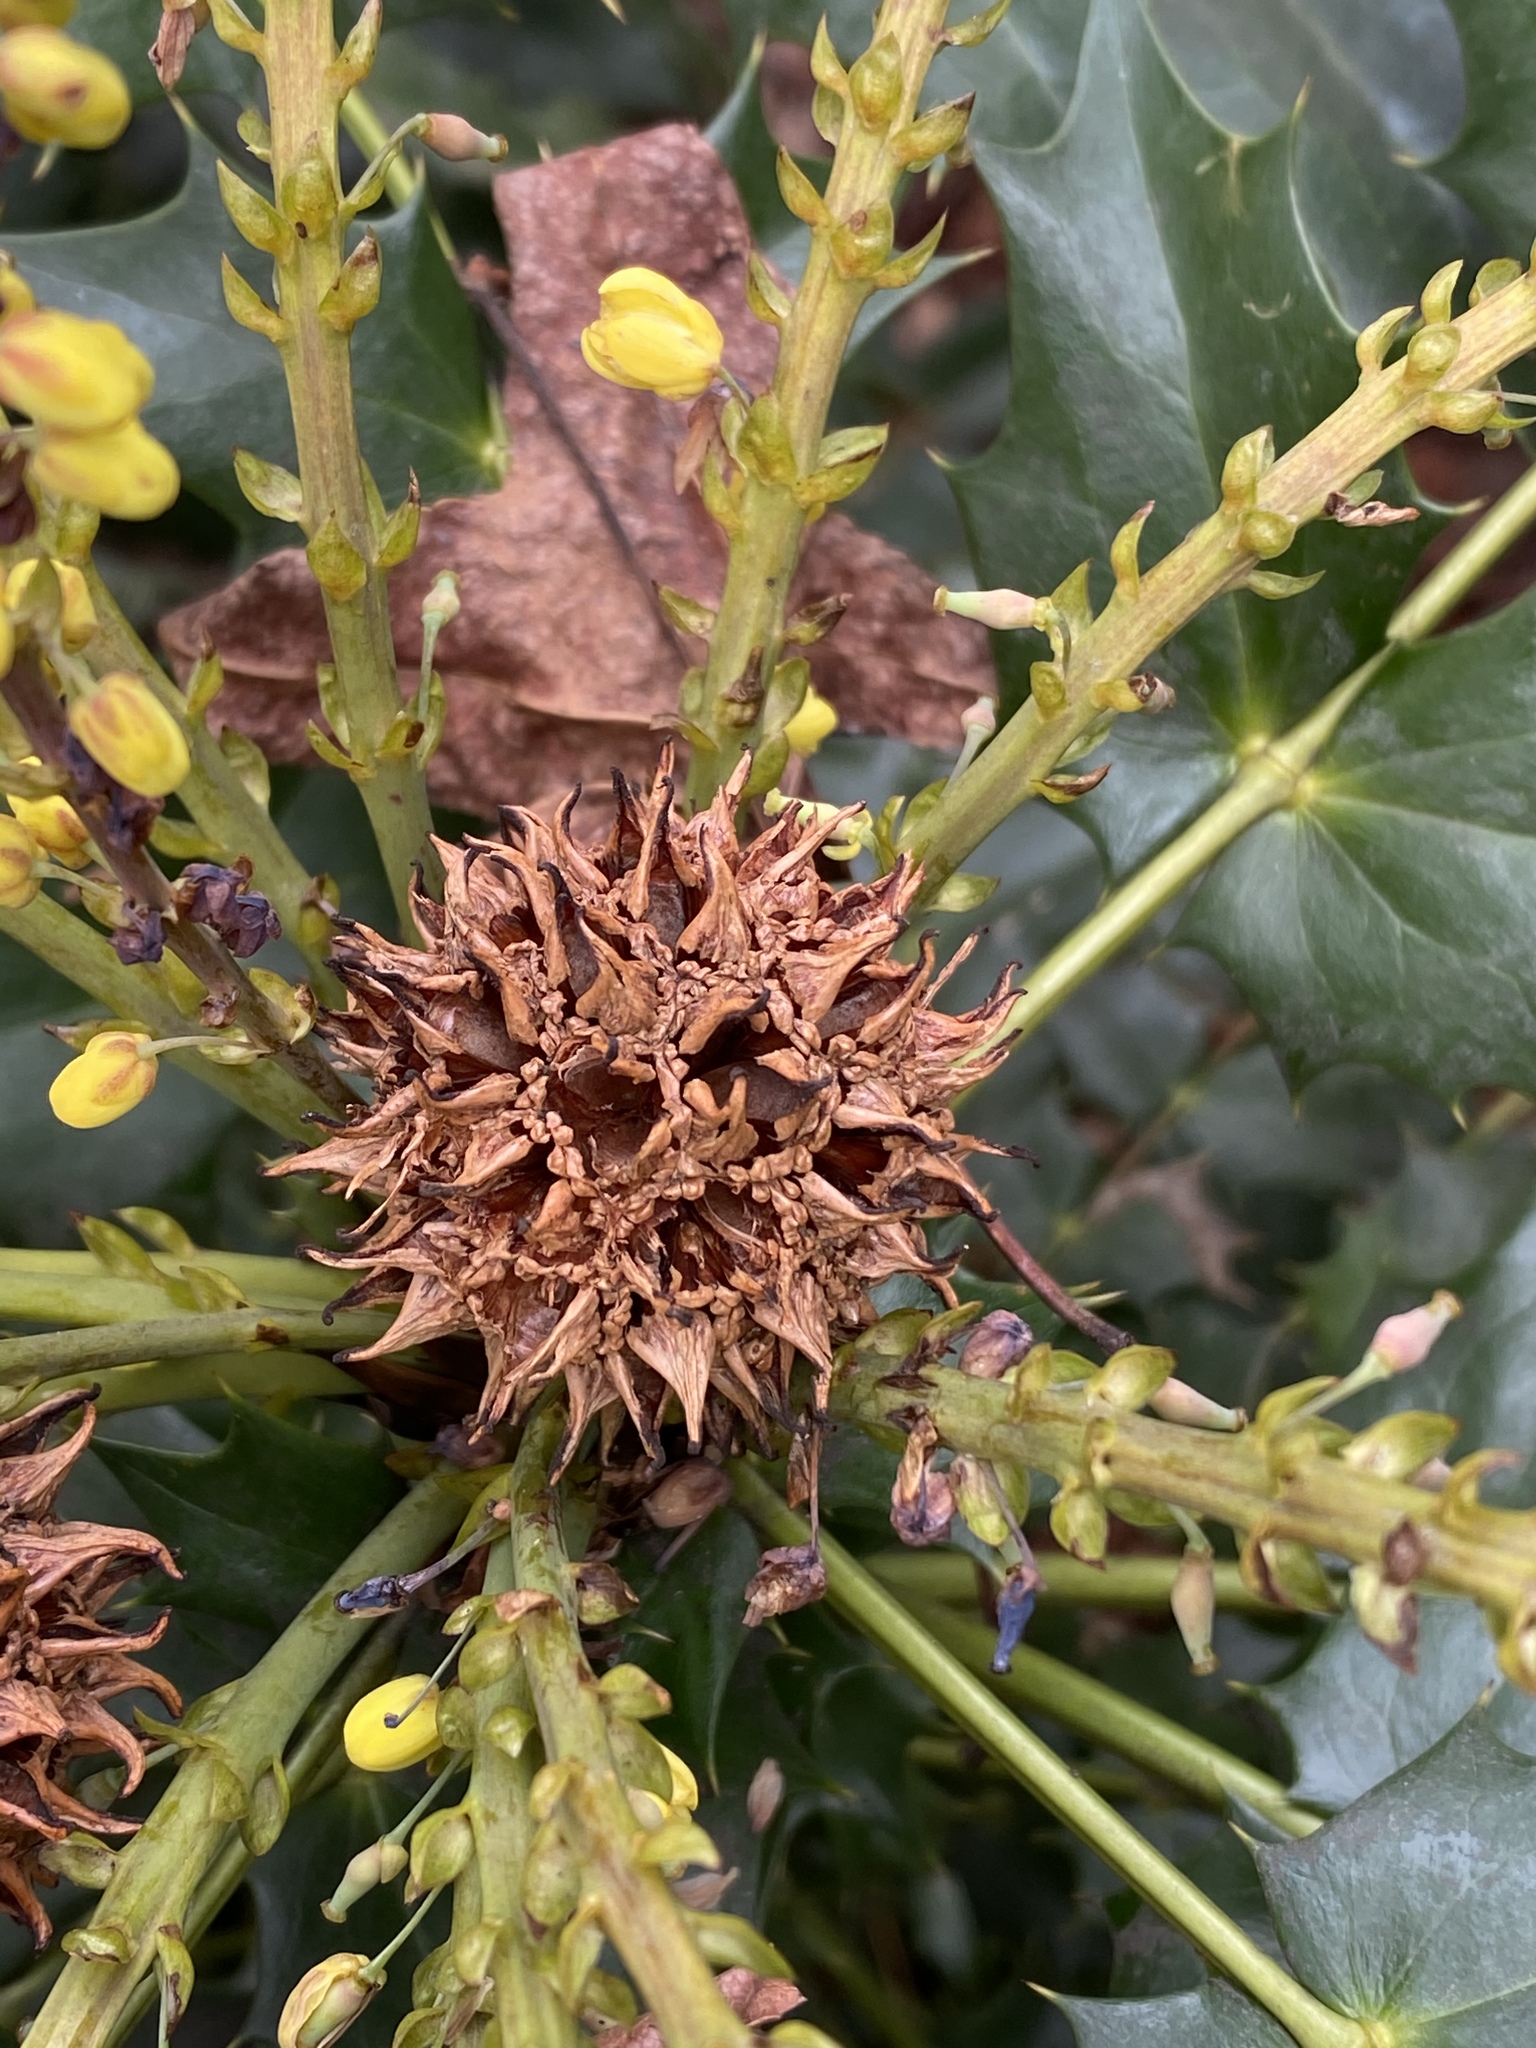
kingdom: Plantae
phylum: Tracheophyta
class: Magnoliopsida
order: Saxifragales
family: Altingiaceae
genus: Liquidambar
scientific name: Liquidambar styraciflua
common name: Sweet gum
